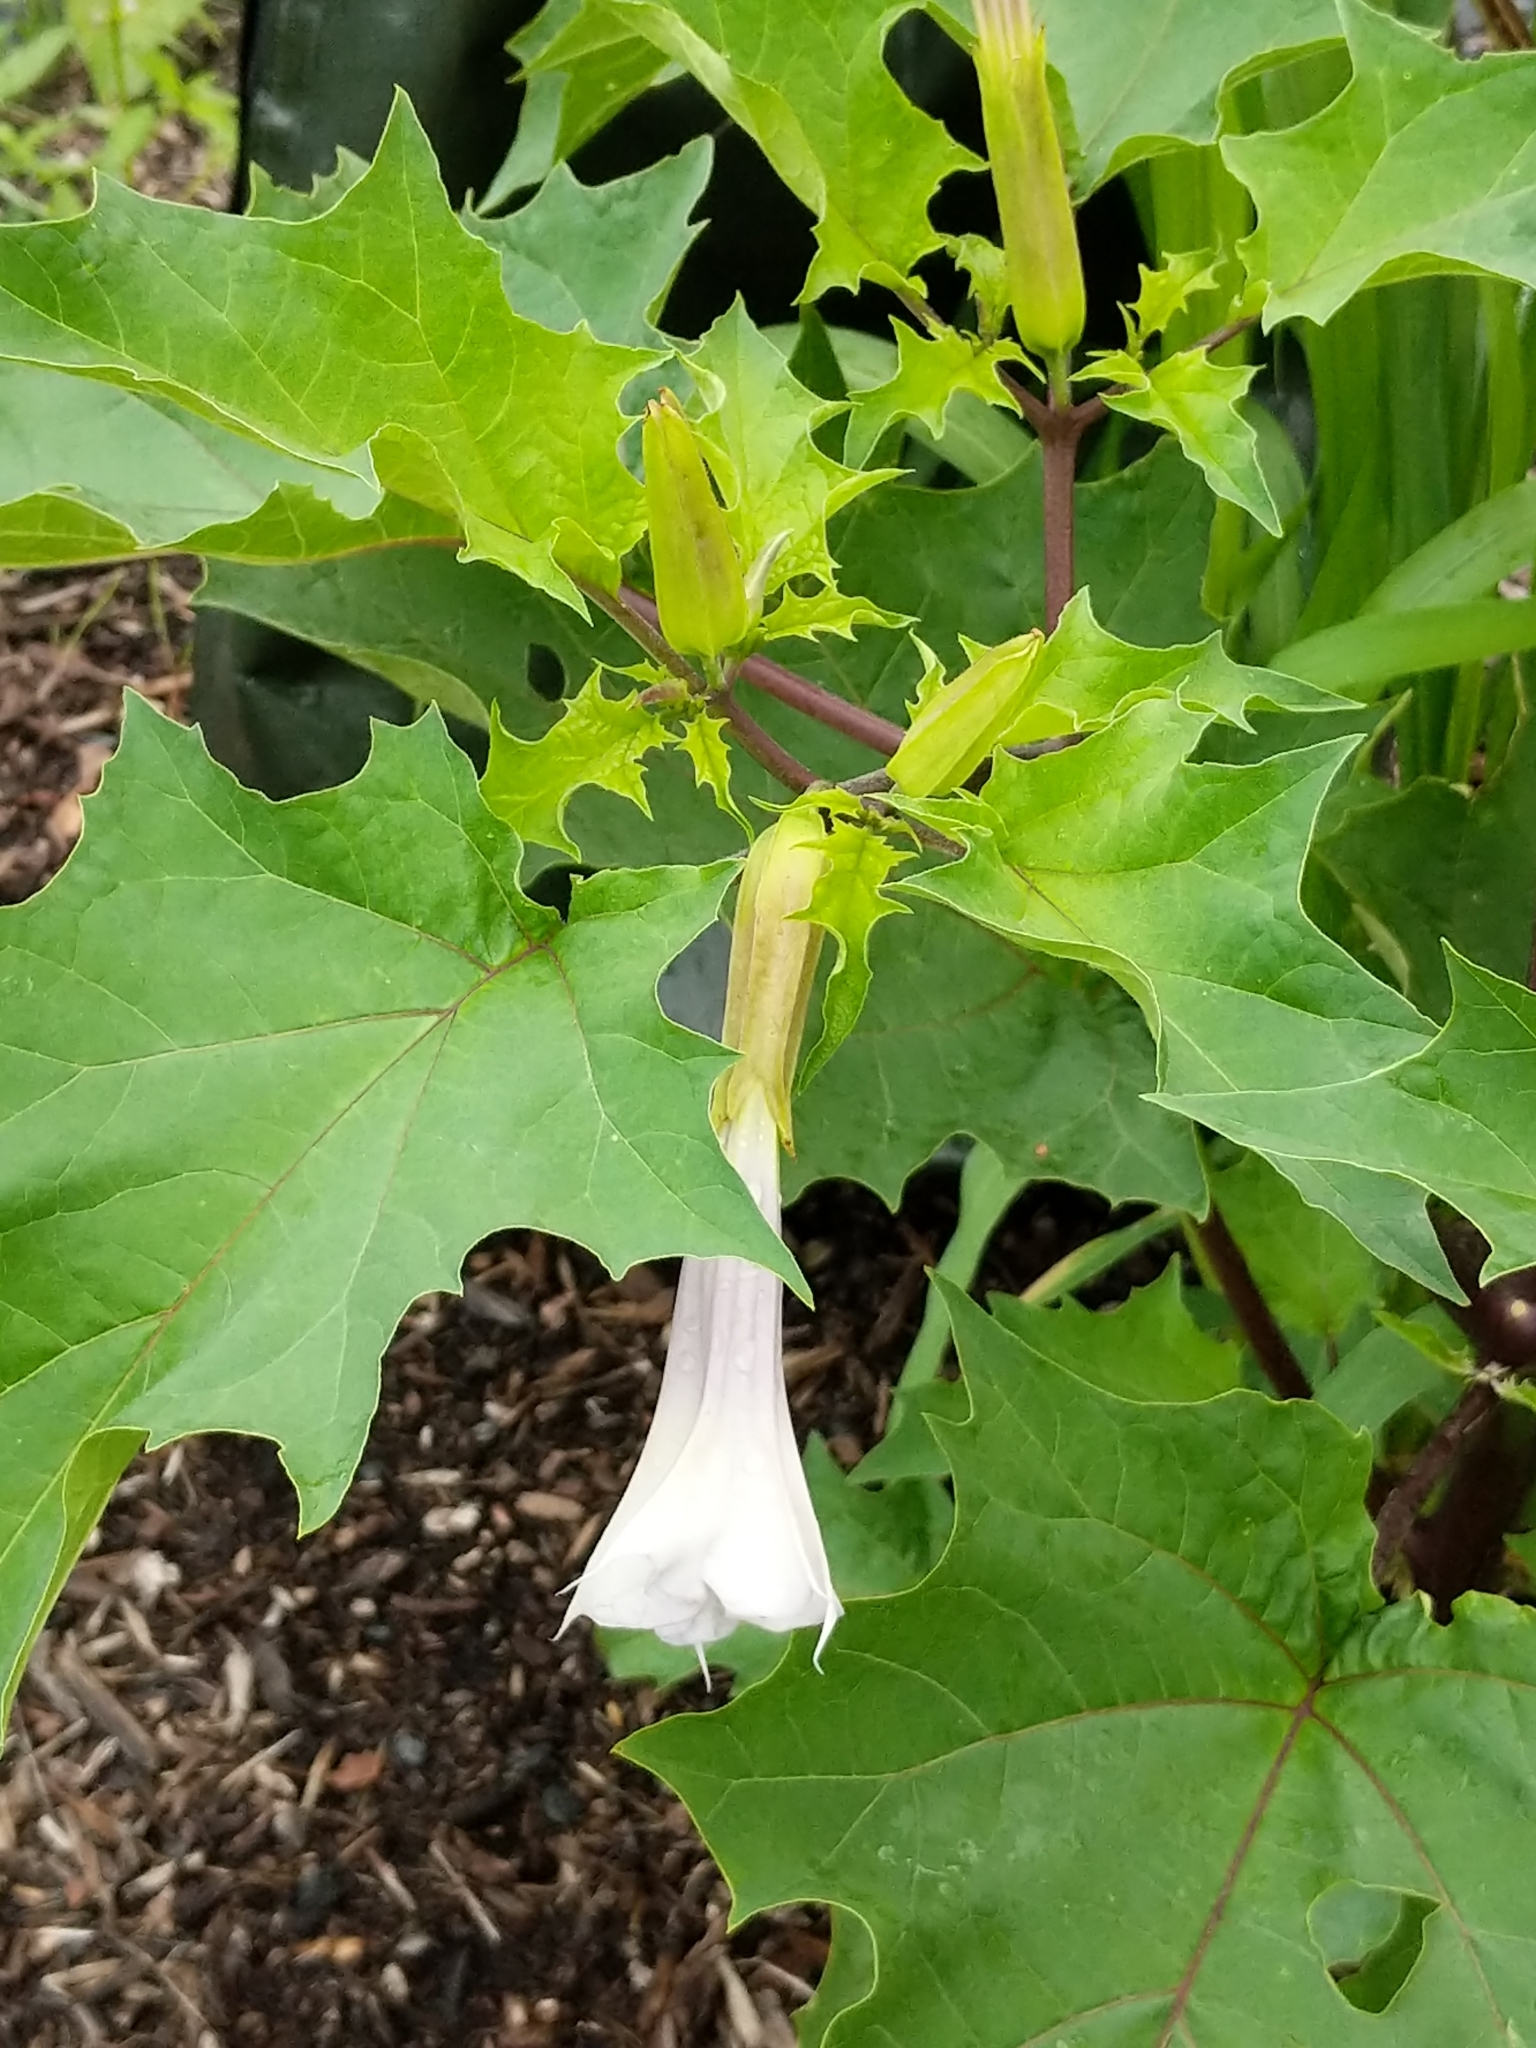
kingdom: Plantae
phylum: Tracheophyta
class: Magnoliopsida
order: Solanales
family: Solanaceae
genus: Datura
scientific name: Datura stramonium
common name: Thorn-apple
